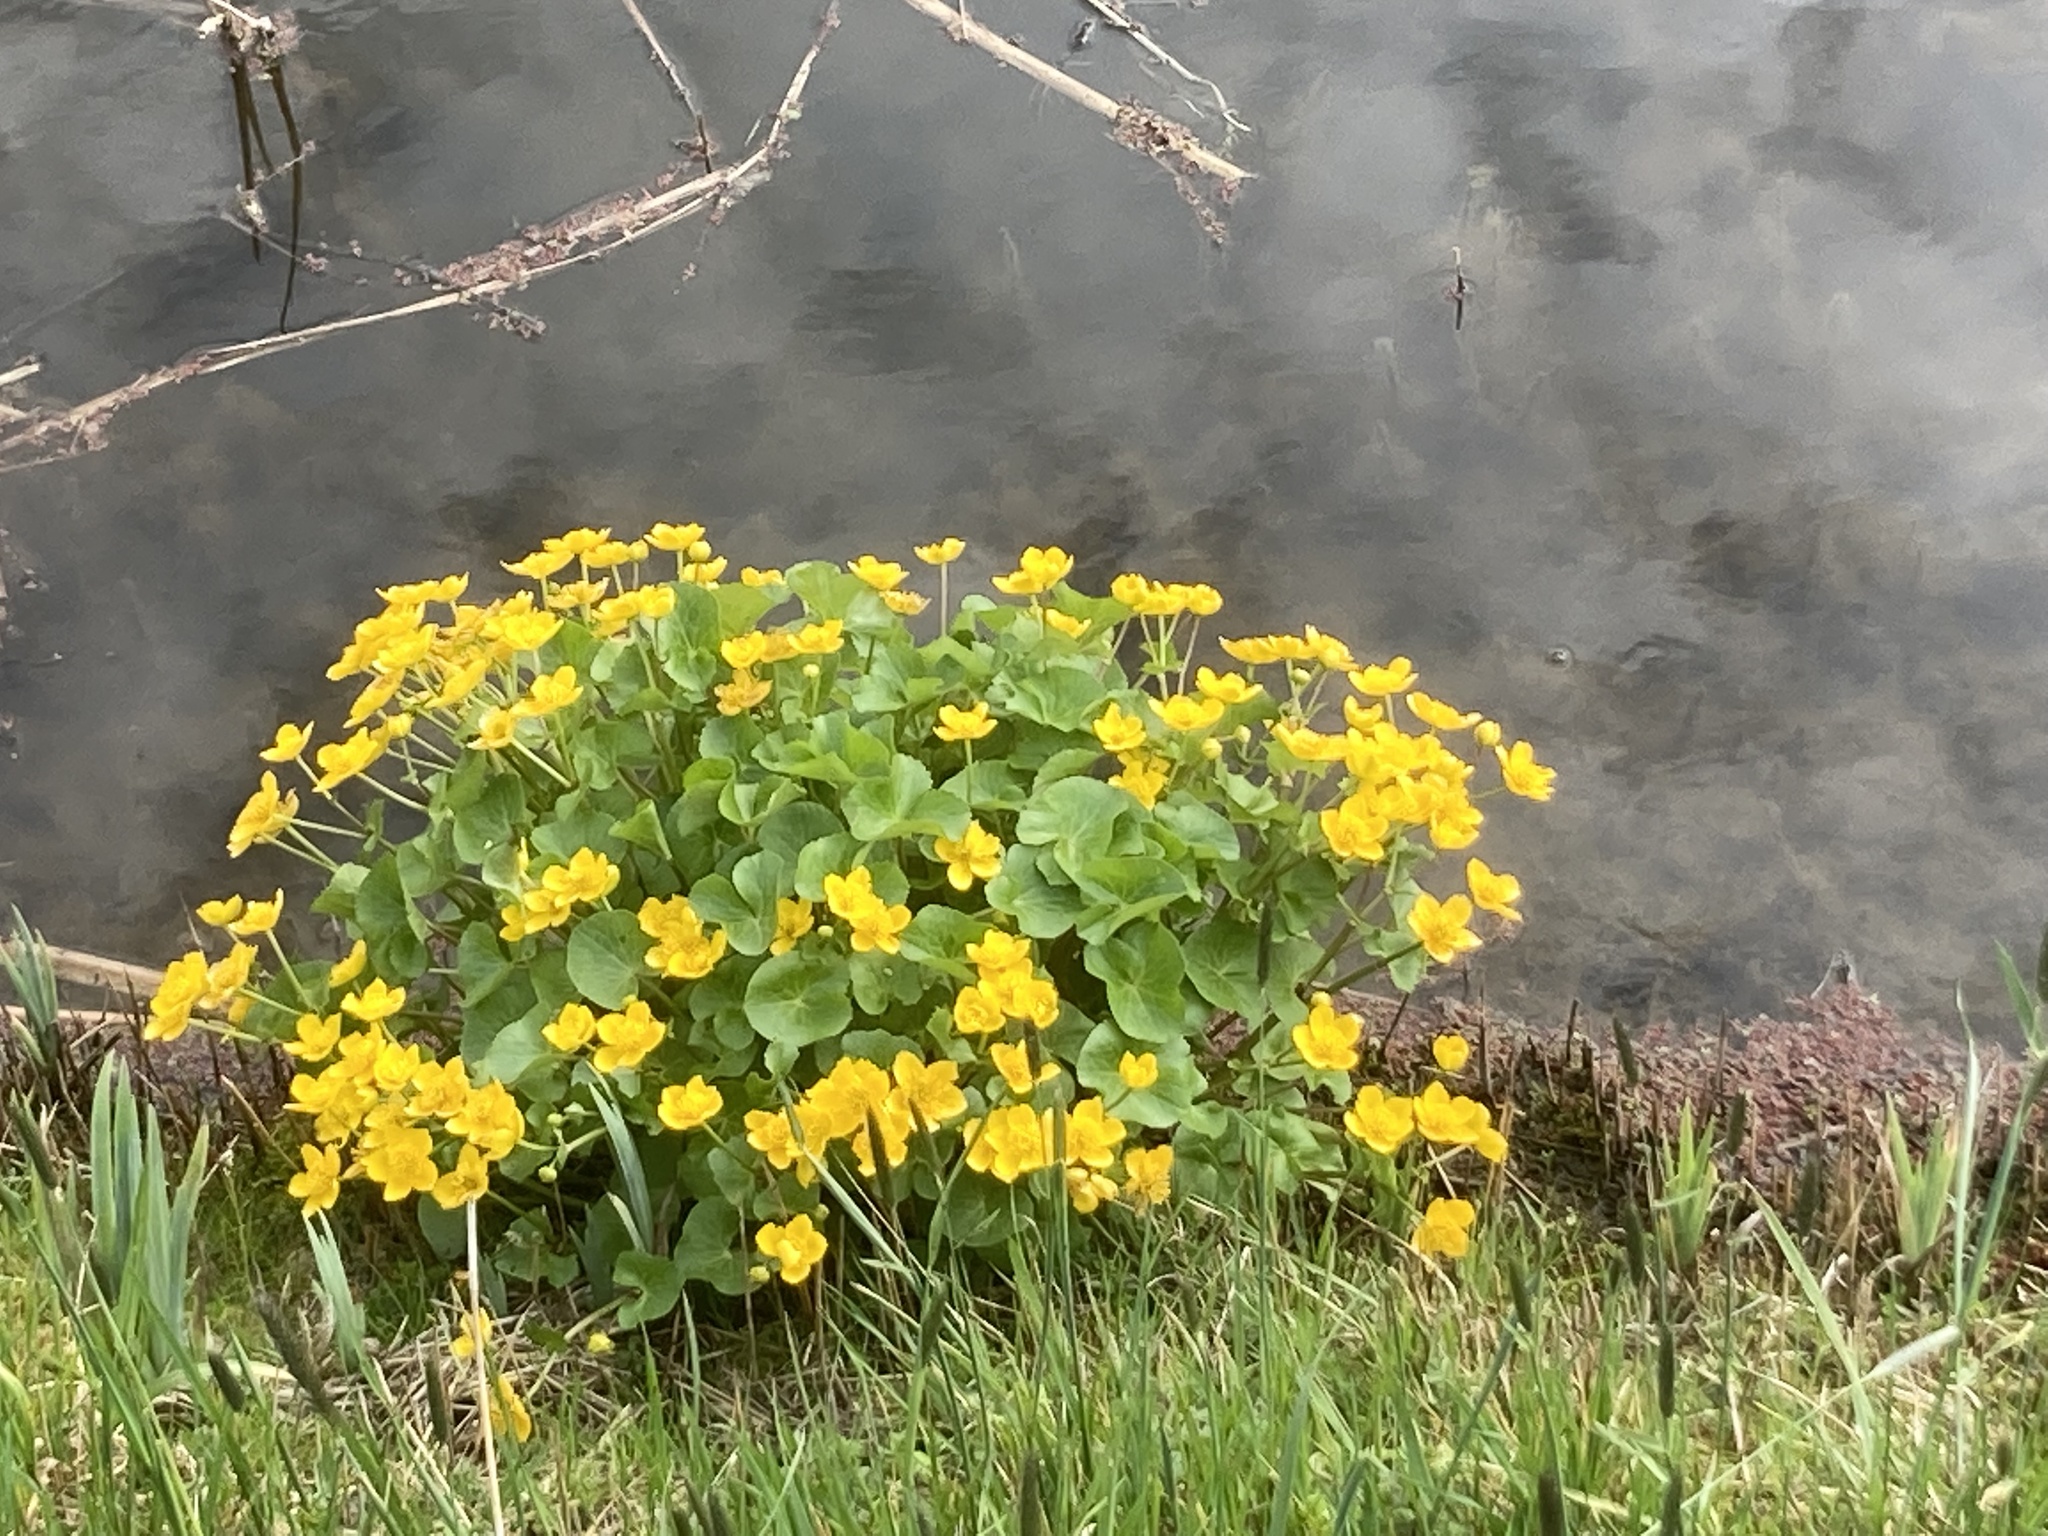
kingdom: Plantae
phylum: Tracheophyta
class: Magnoliopsida
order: Ranunculales
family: Ranunculaceae
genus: Caltha
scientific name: Caltha palustris
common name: Marsh marigold
